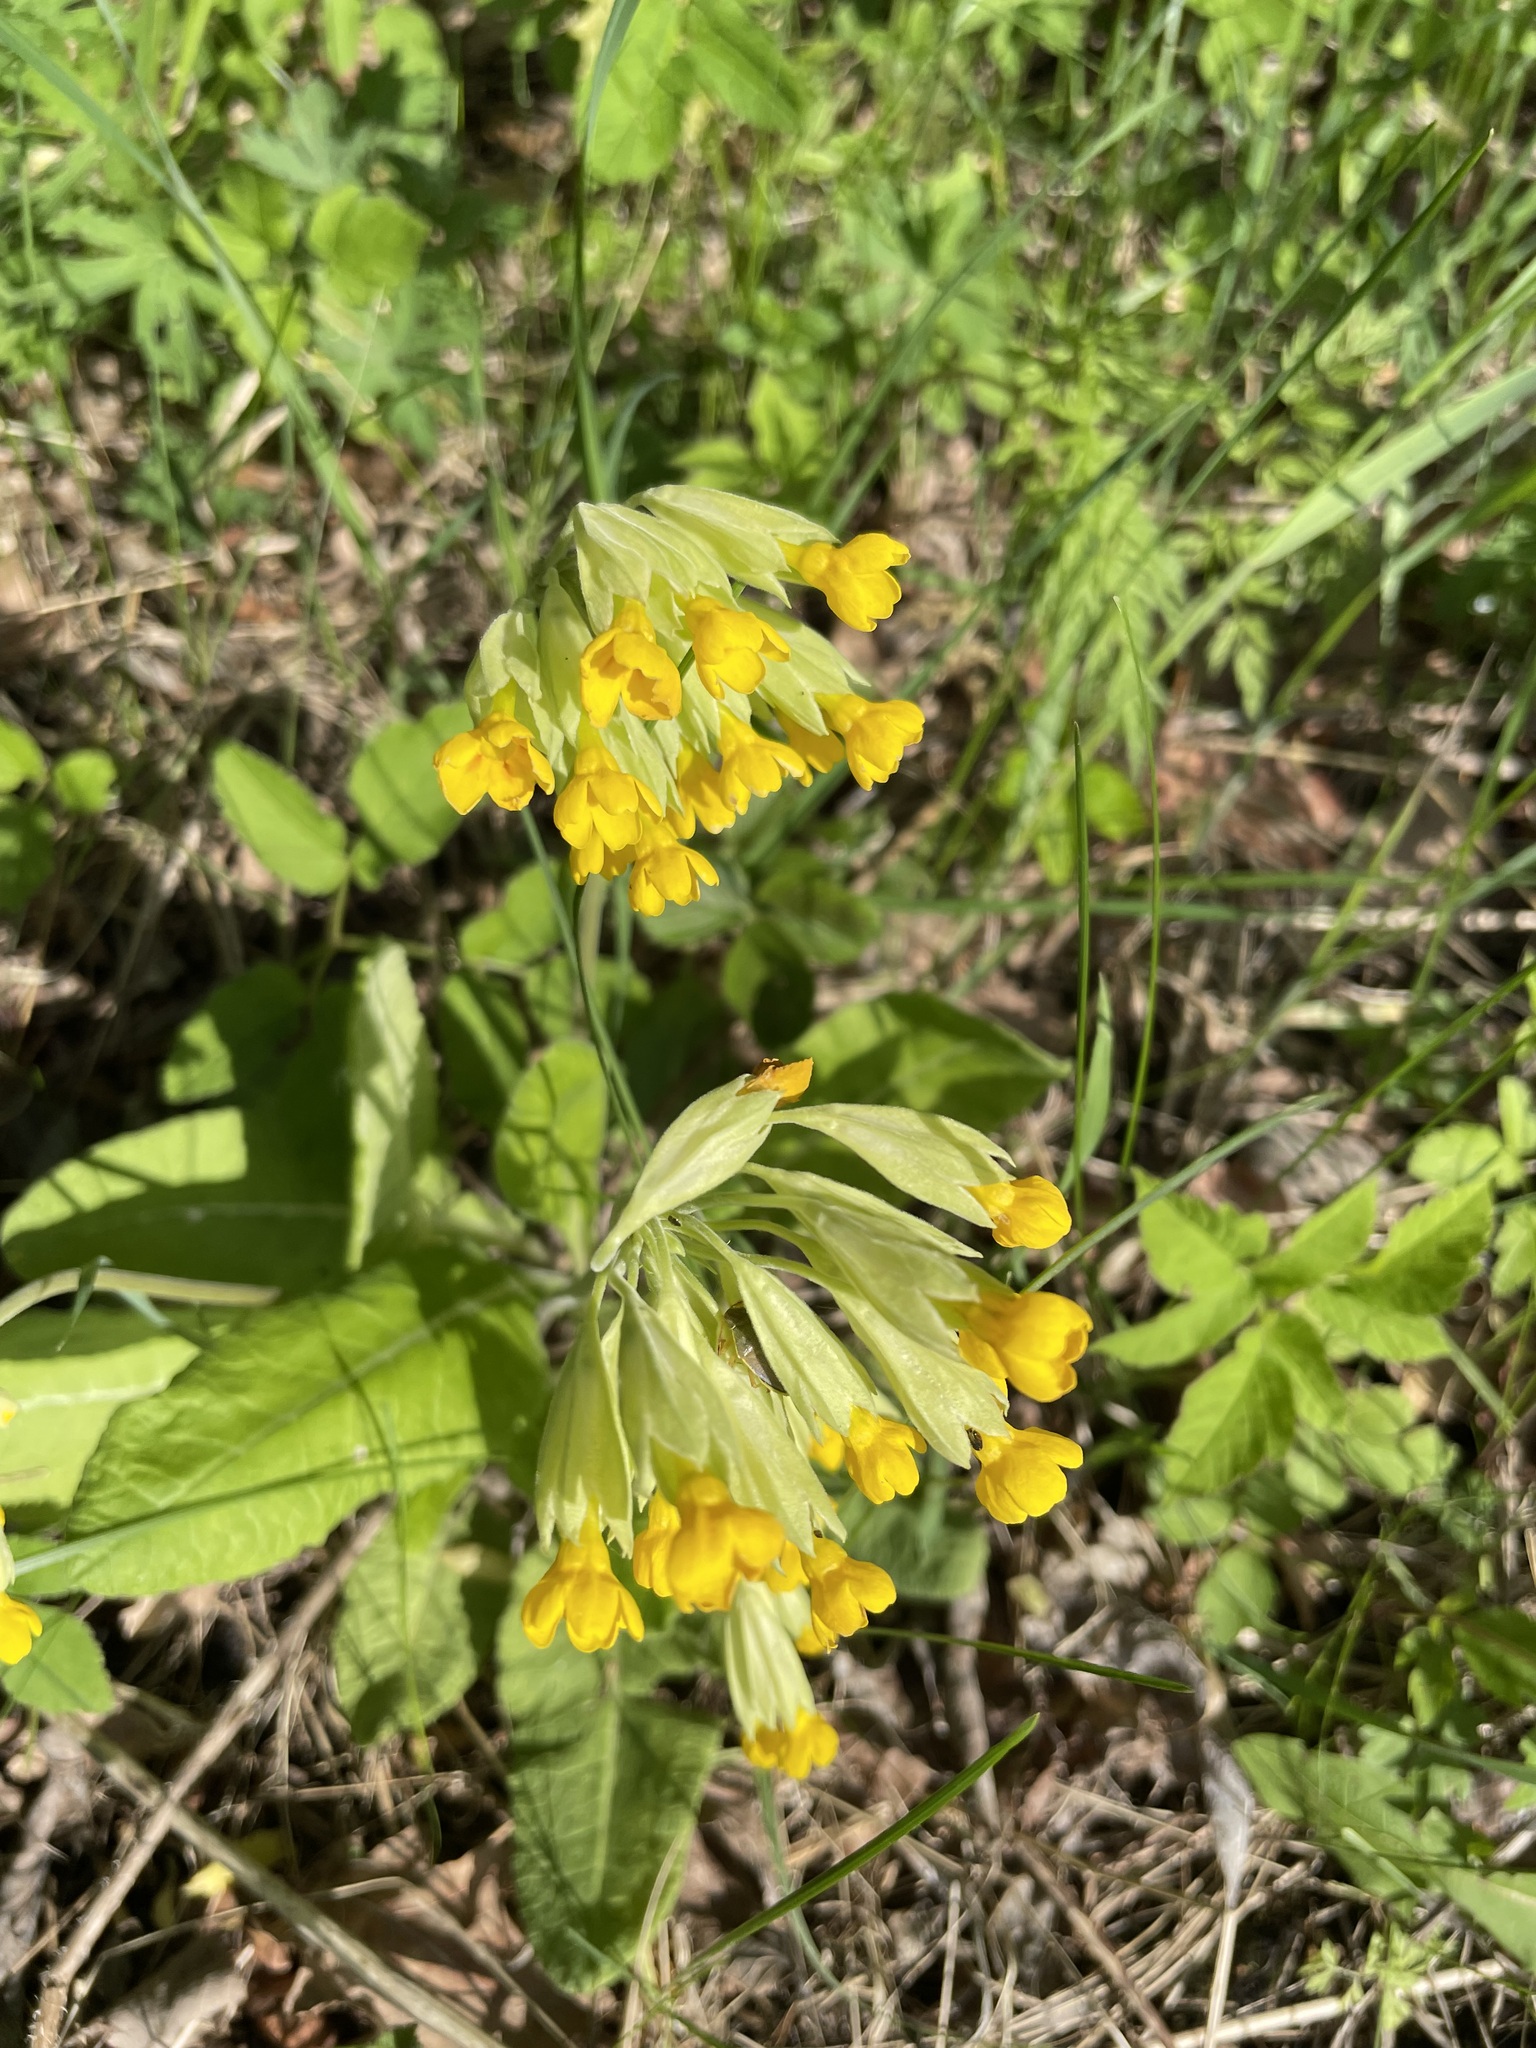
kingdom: Plantae
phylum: Tracheophyta
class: Magnoliopsida
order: Ericales
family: Primulaceae
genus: Primula
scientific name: Primula veris
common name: Cowslip
